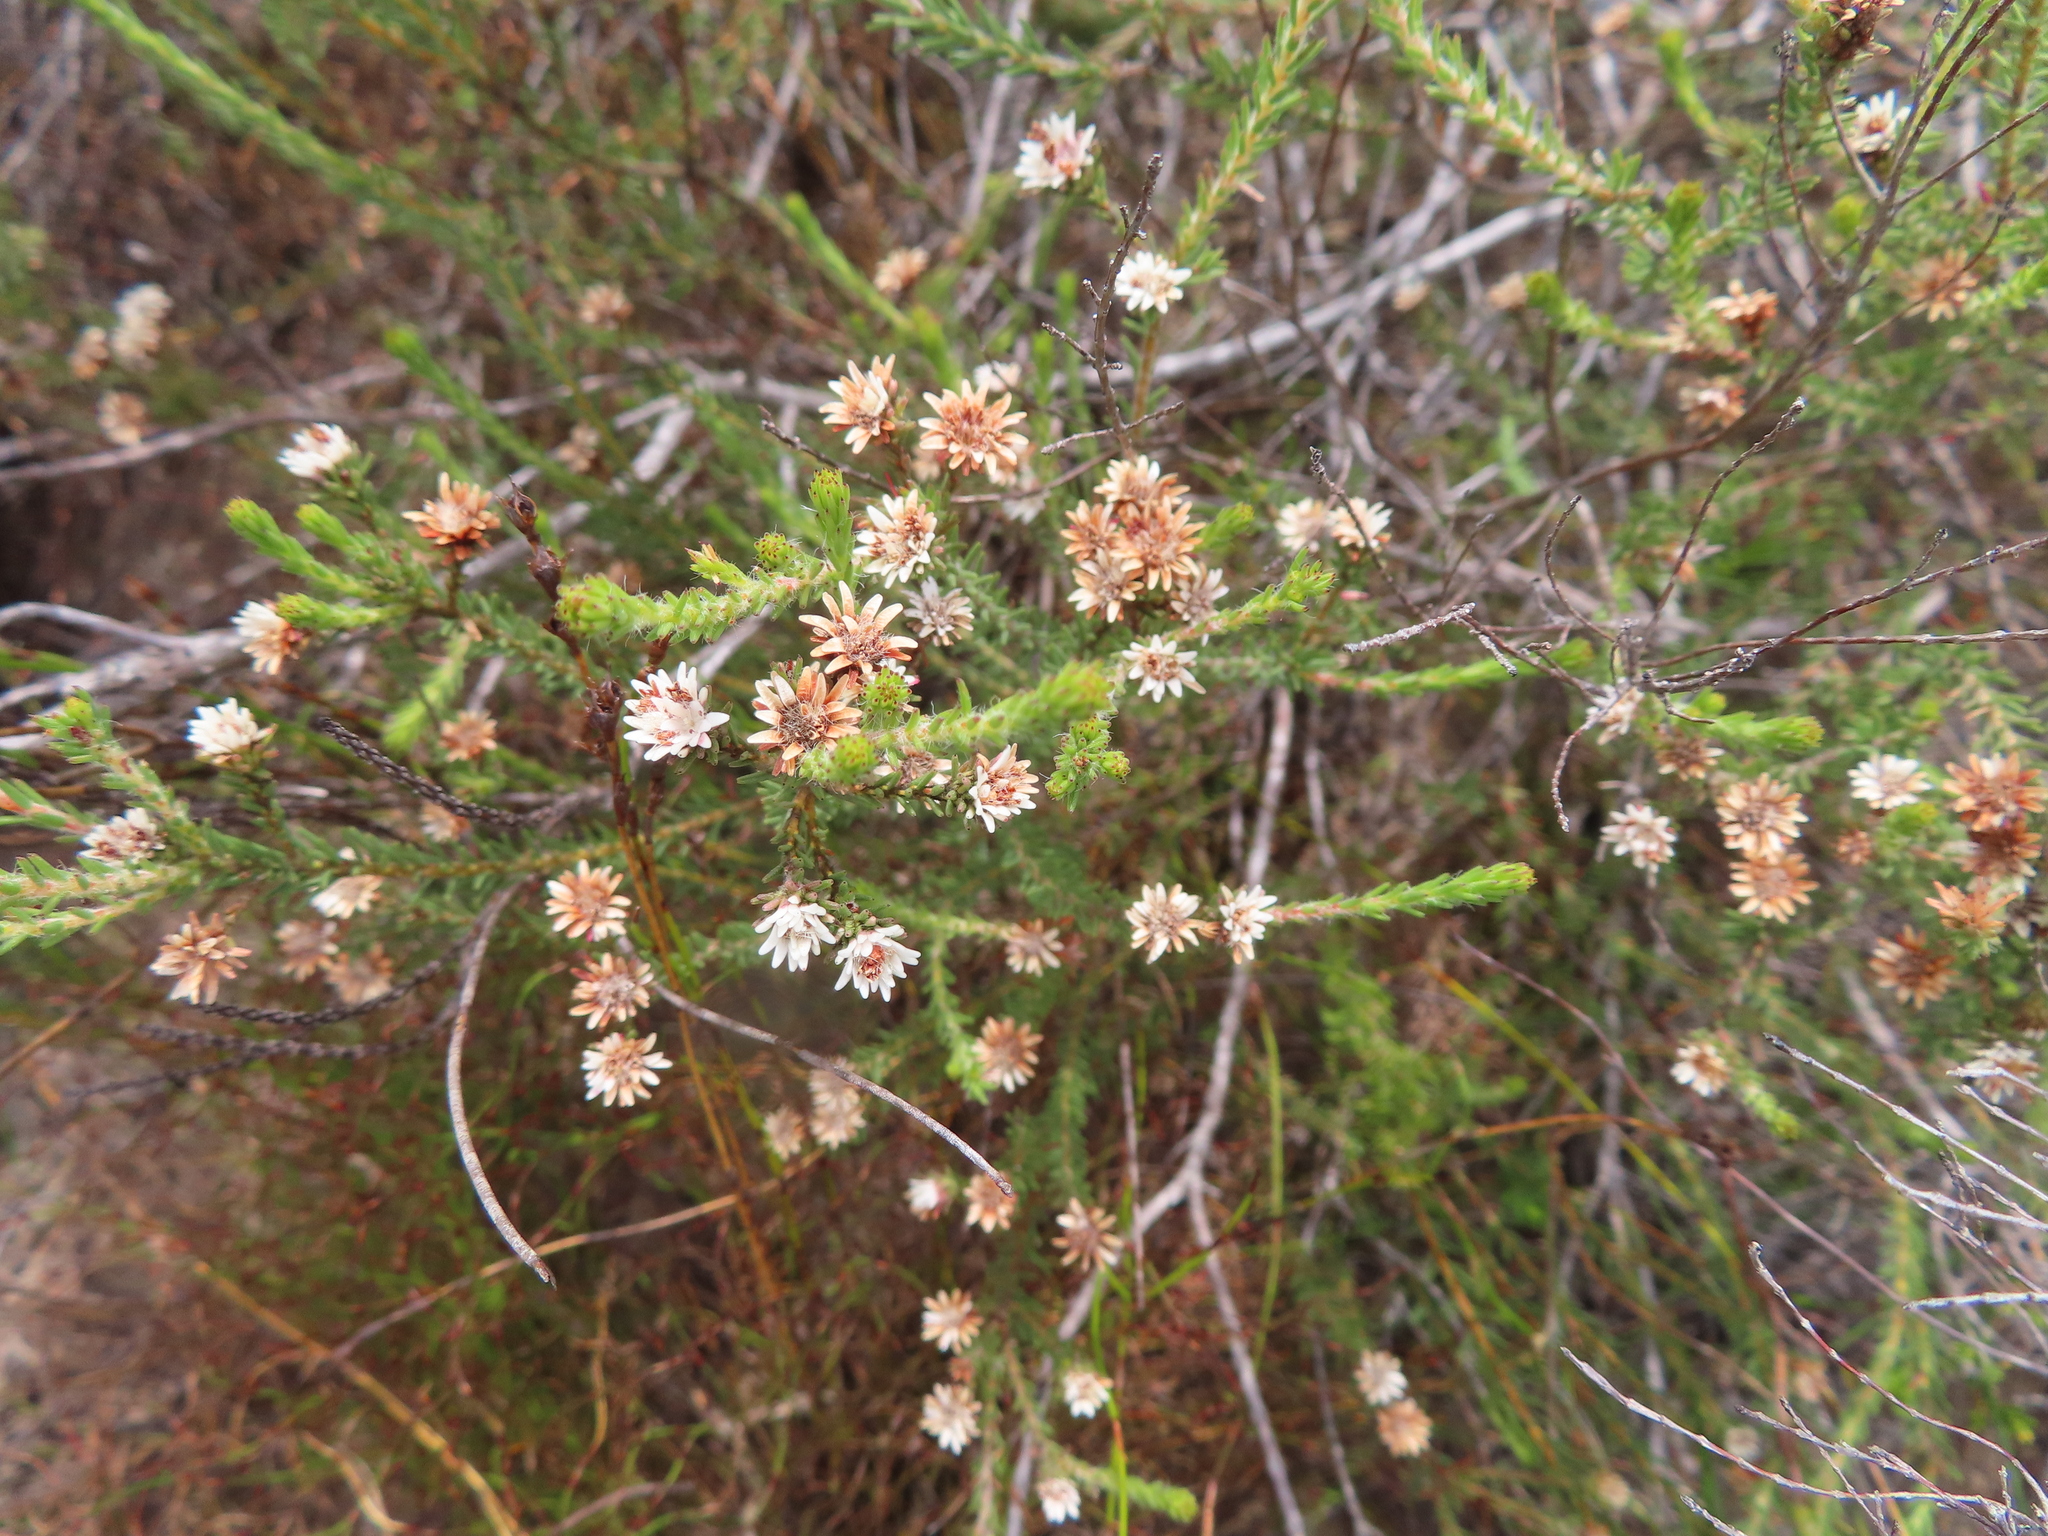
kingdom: Plantae
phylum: Tracheophyta
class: Magnoliopsida
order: Bruniales
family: Bruniaceae
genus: Staavia
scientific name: Staavia radiata
